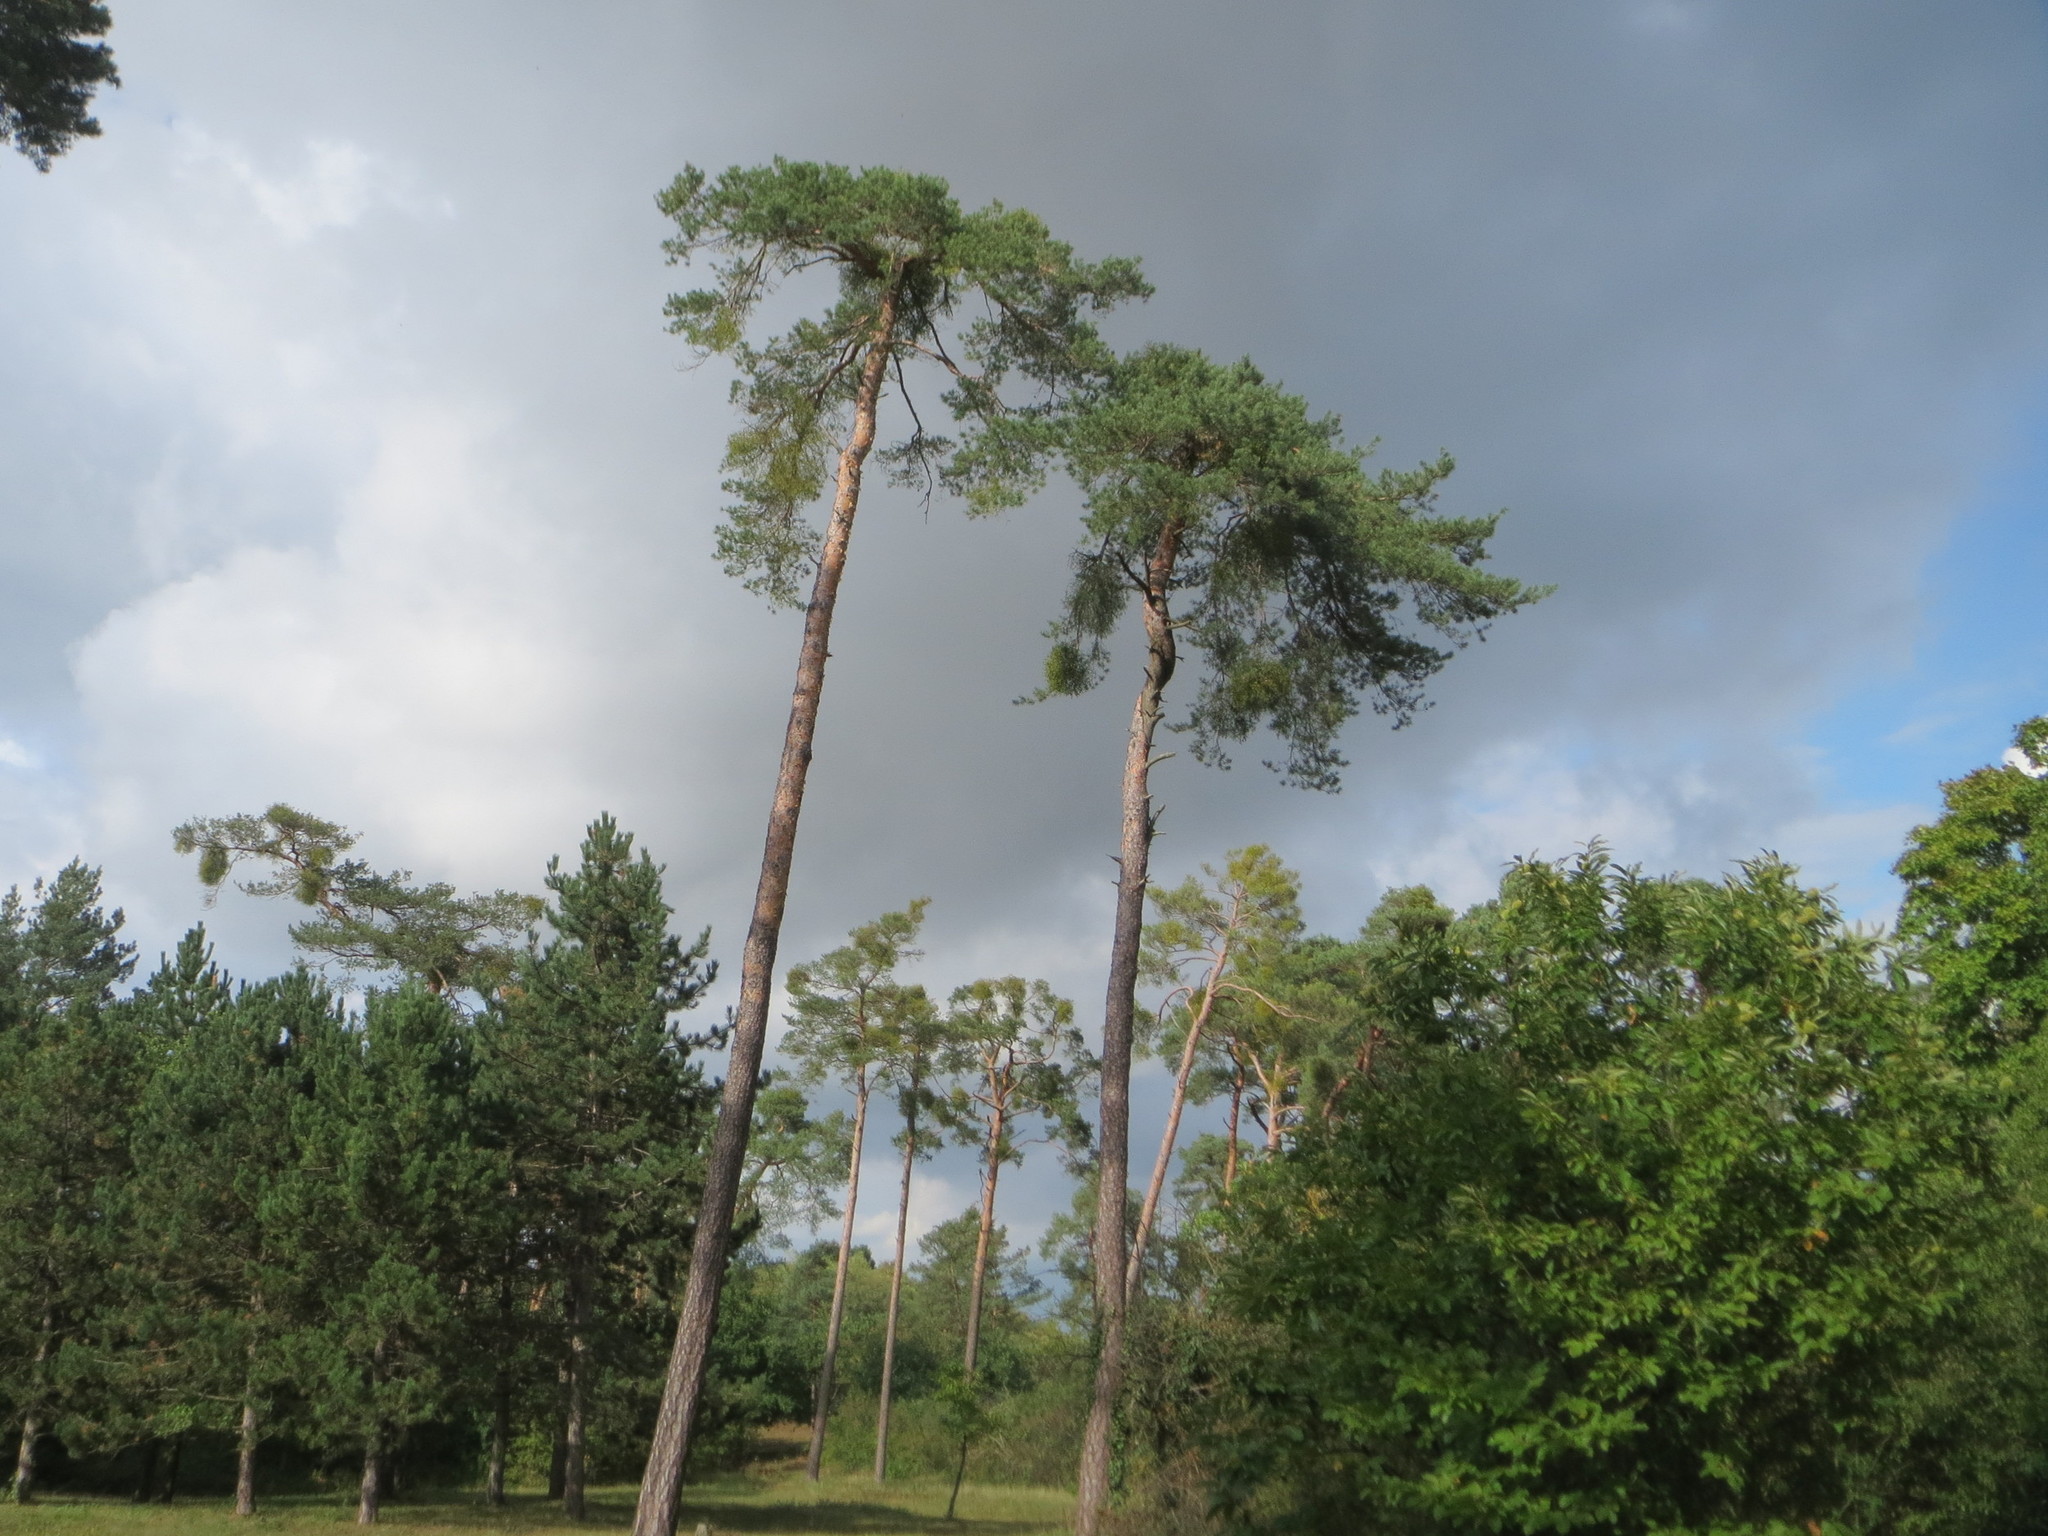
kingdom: Plantae
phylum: Tracheophyta
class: Pinopsida
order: Pinales
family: Pinaceae
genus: Pinus
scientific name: Pinus sylvestris
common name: Scots pine
